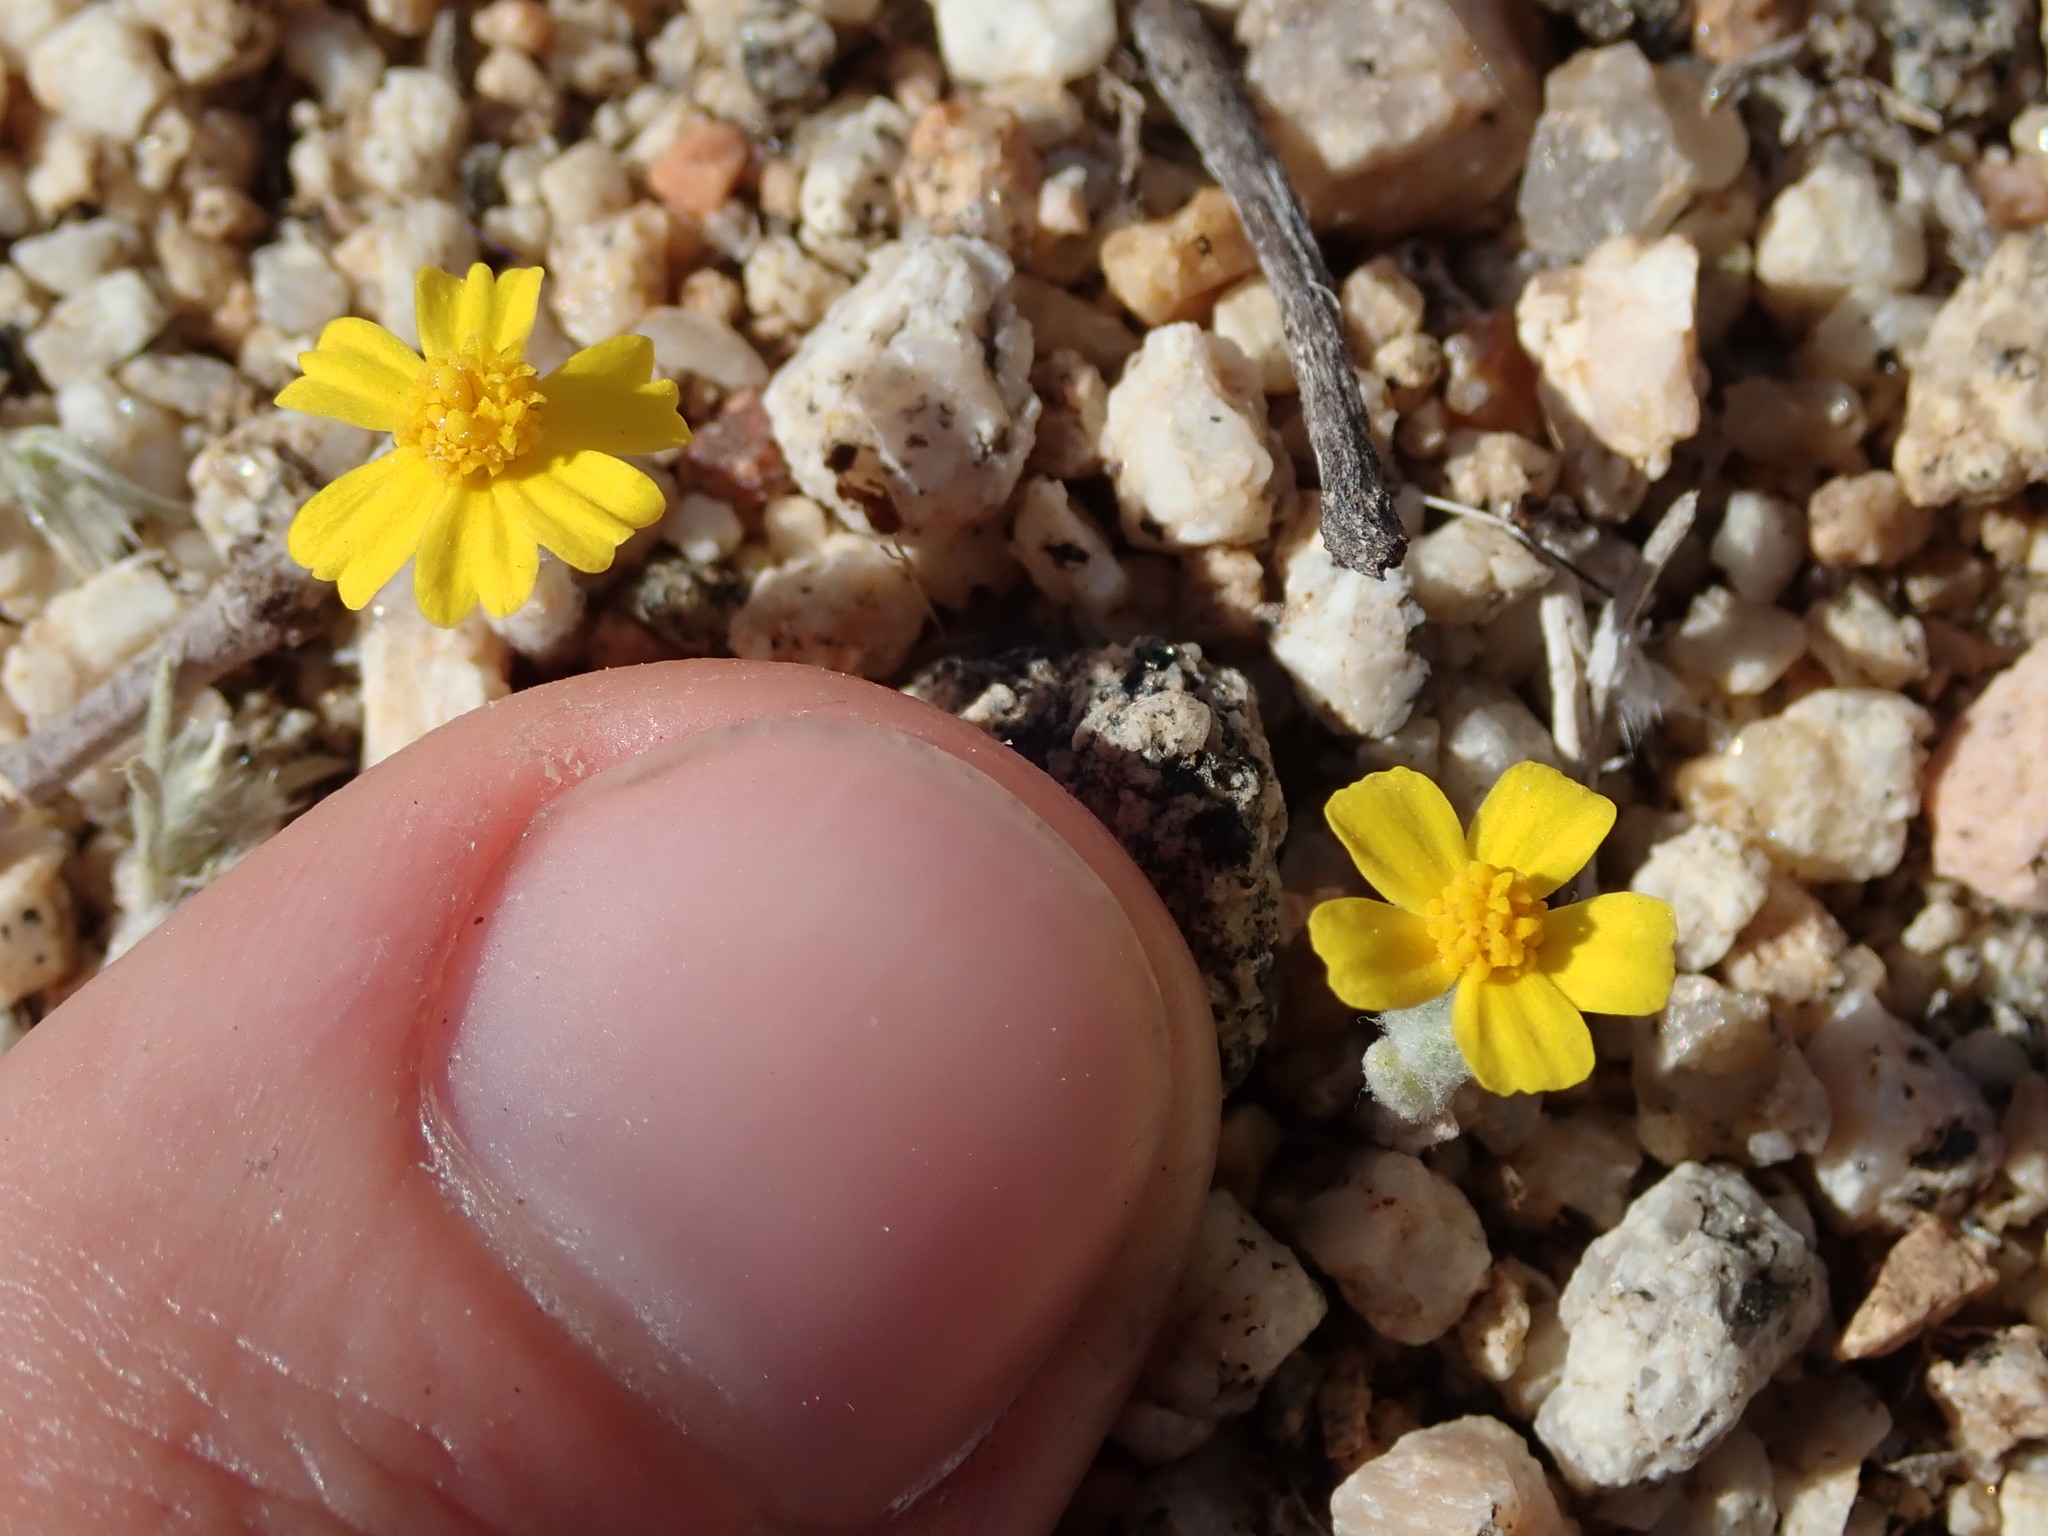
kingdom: Plantae
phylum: Tracheophyta
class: Magnoliopsida
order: Asterales
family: Asteraceae
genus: Eriophyllum
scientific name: Eriophyllum wallacei
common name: Wallace's woolly daisy
